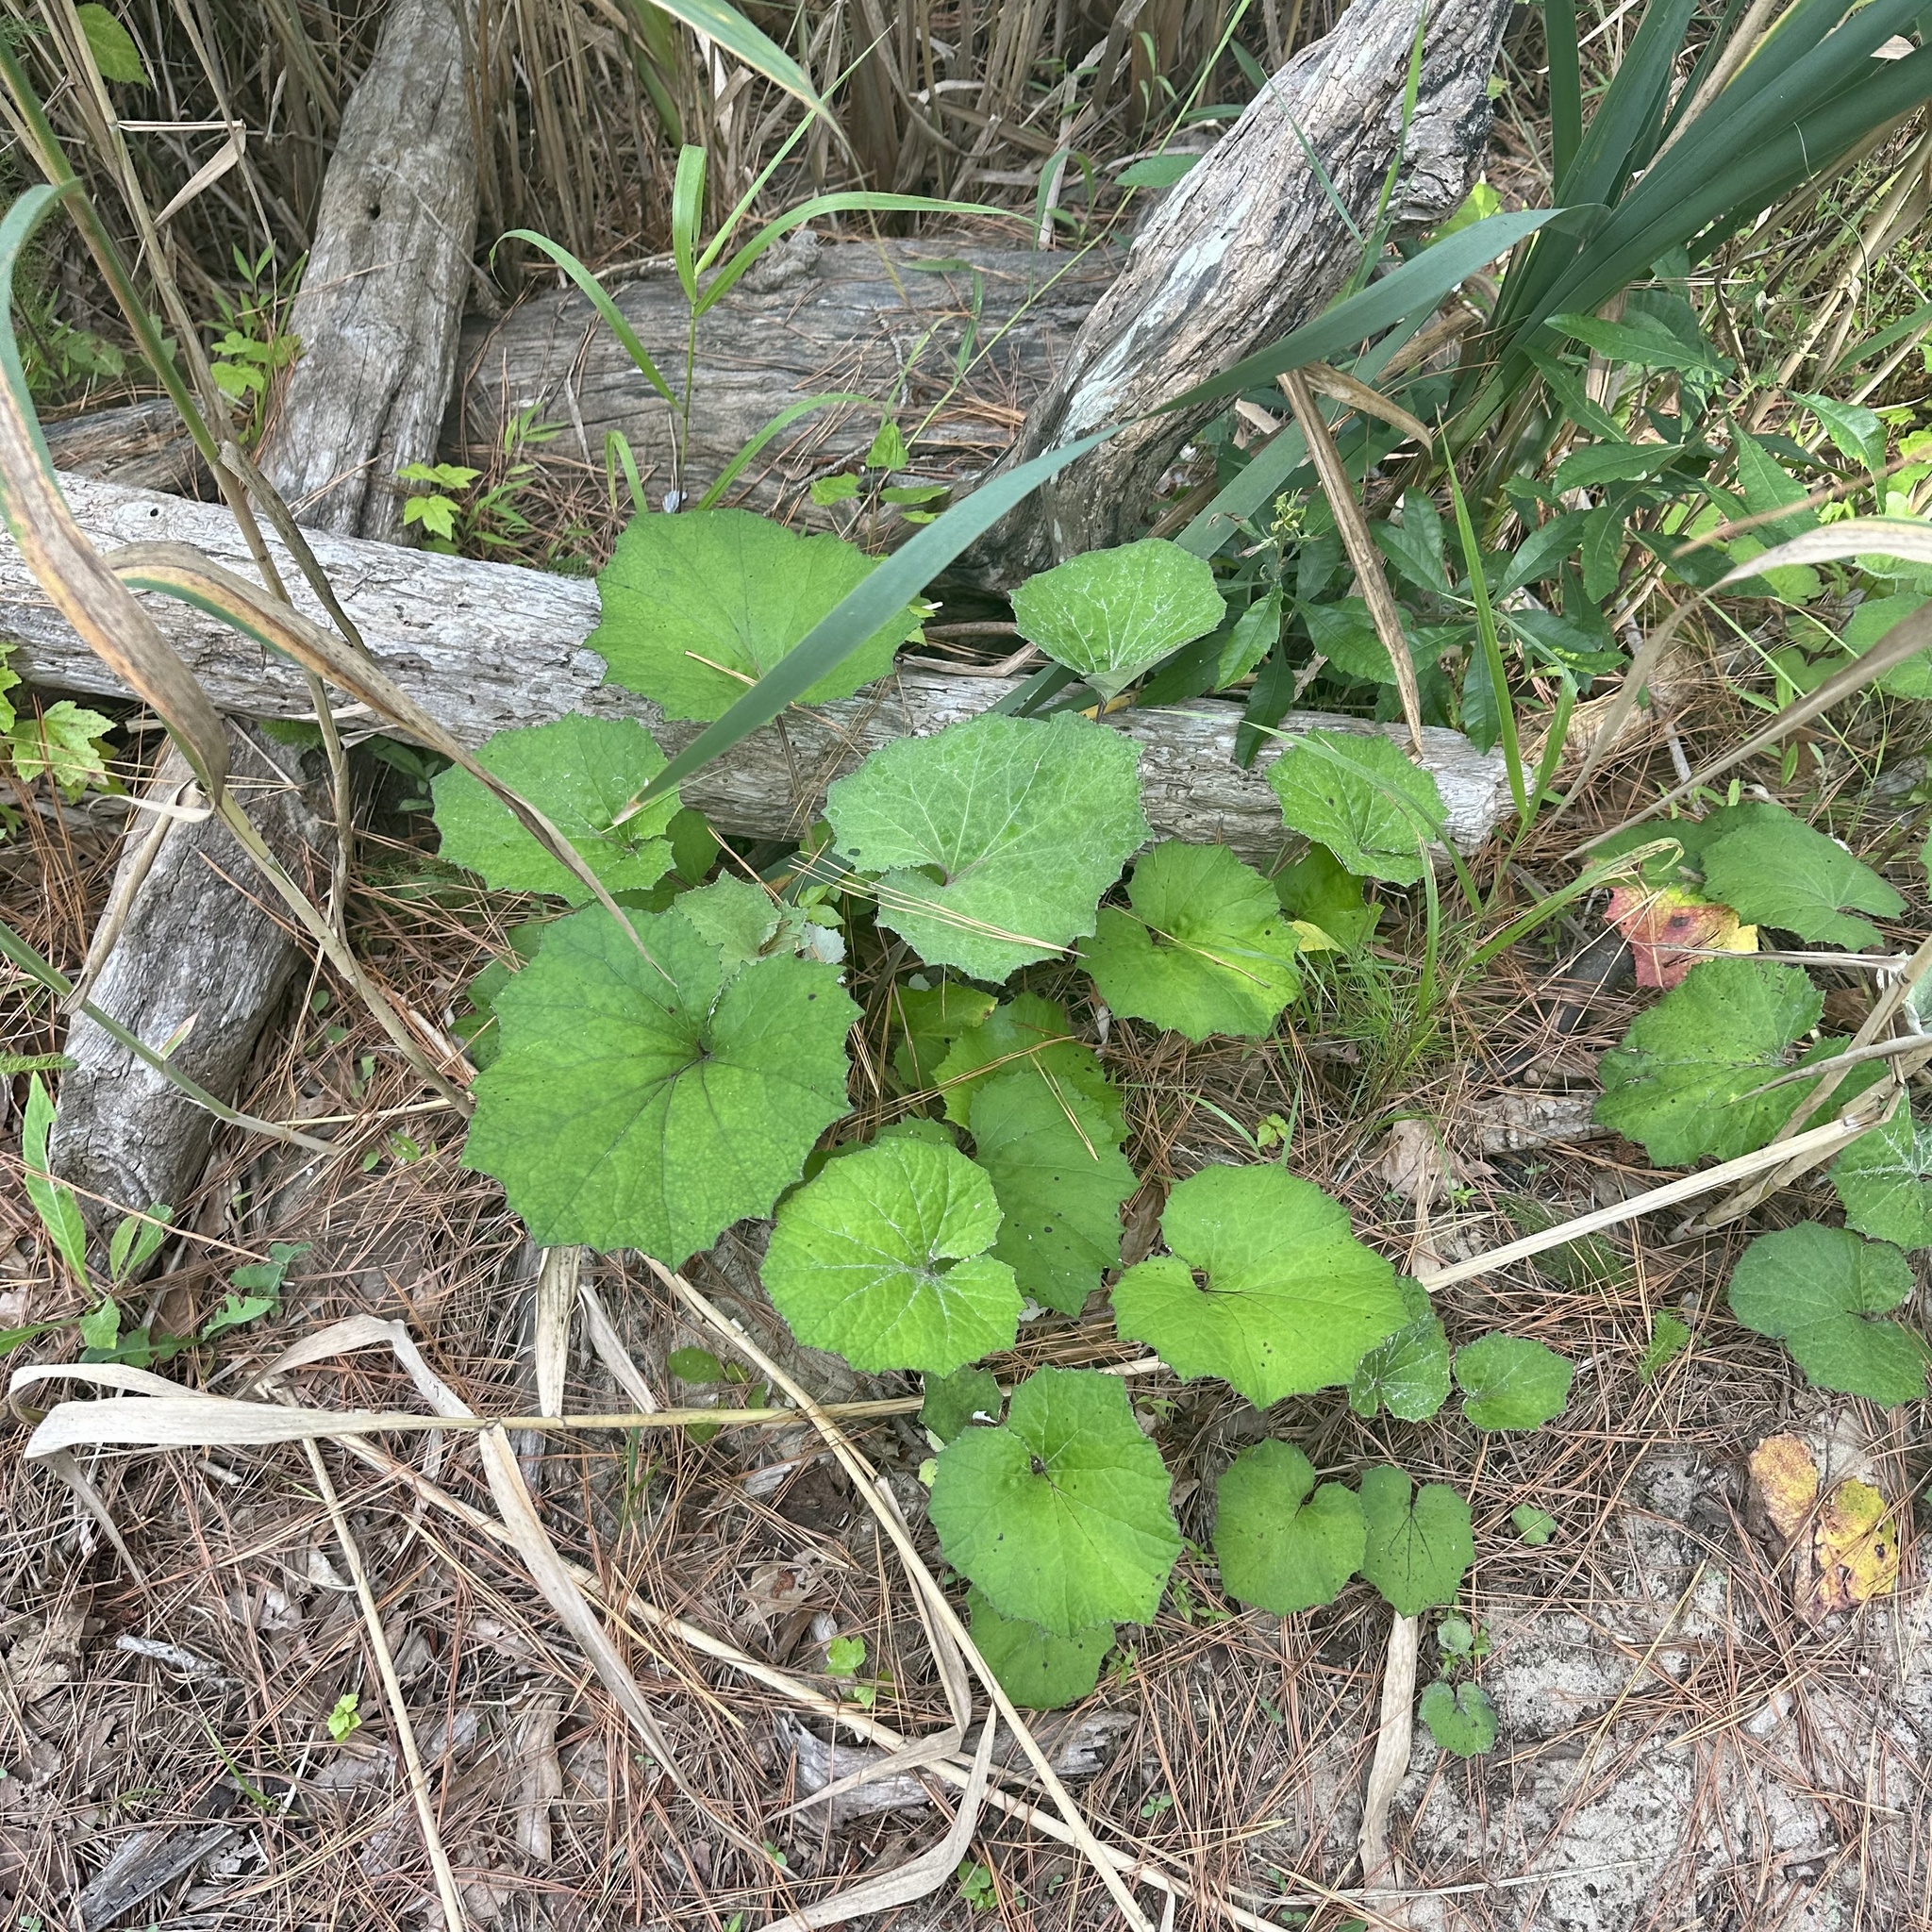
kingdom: Plantae
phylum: Tracheophyta
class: Magnoliopsida
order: Asterales
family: Asteraceae
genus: Tussilago
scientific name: Tussilago farfara
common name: Coltsfoot
